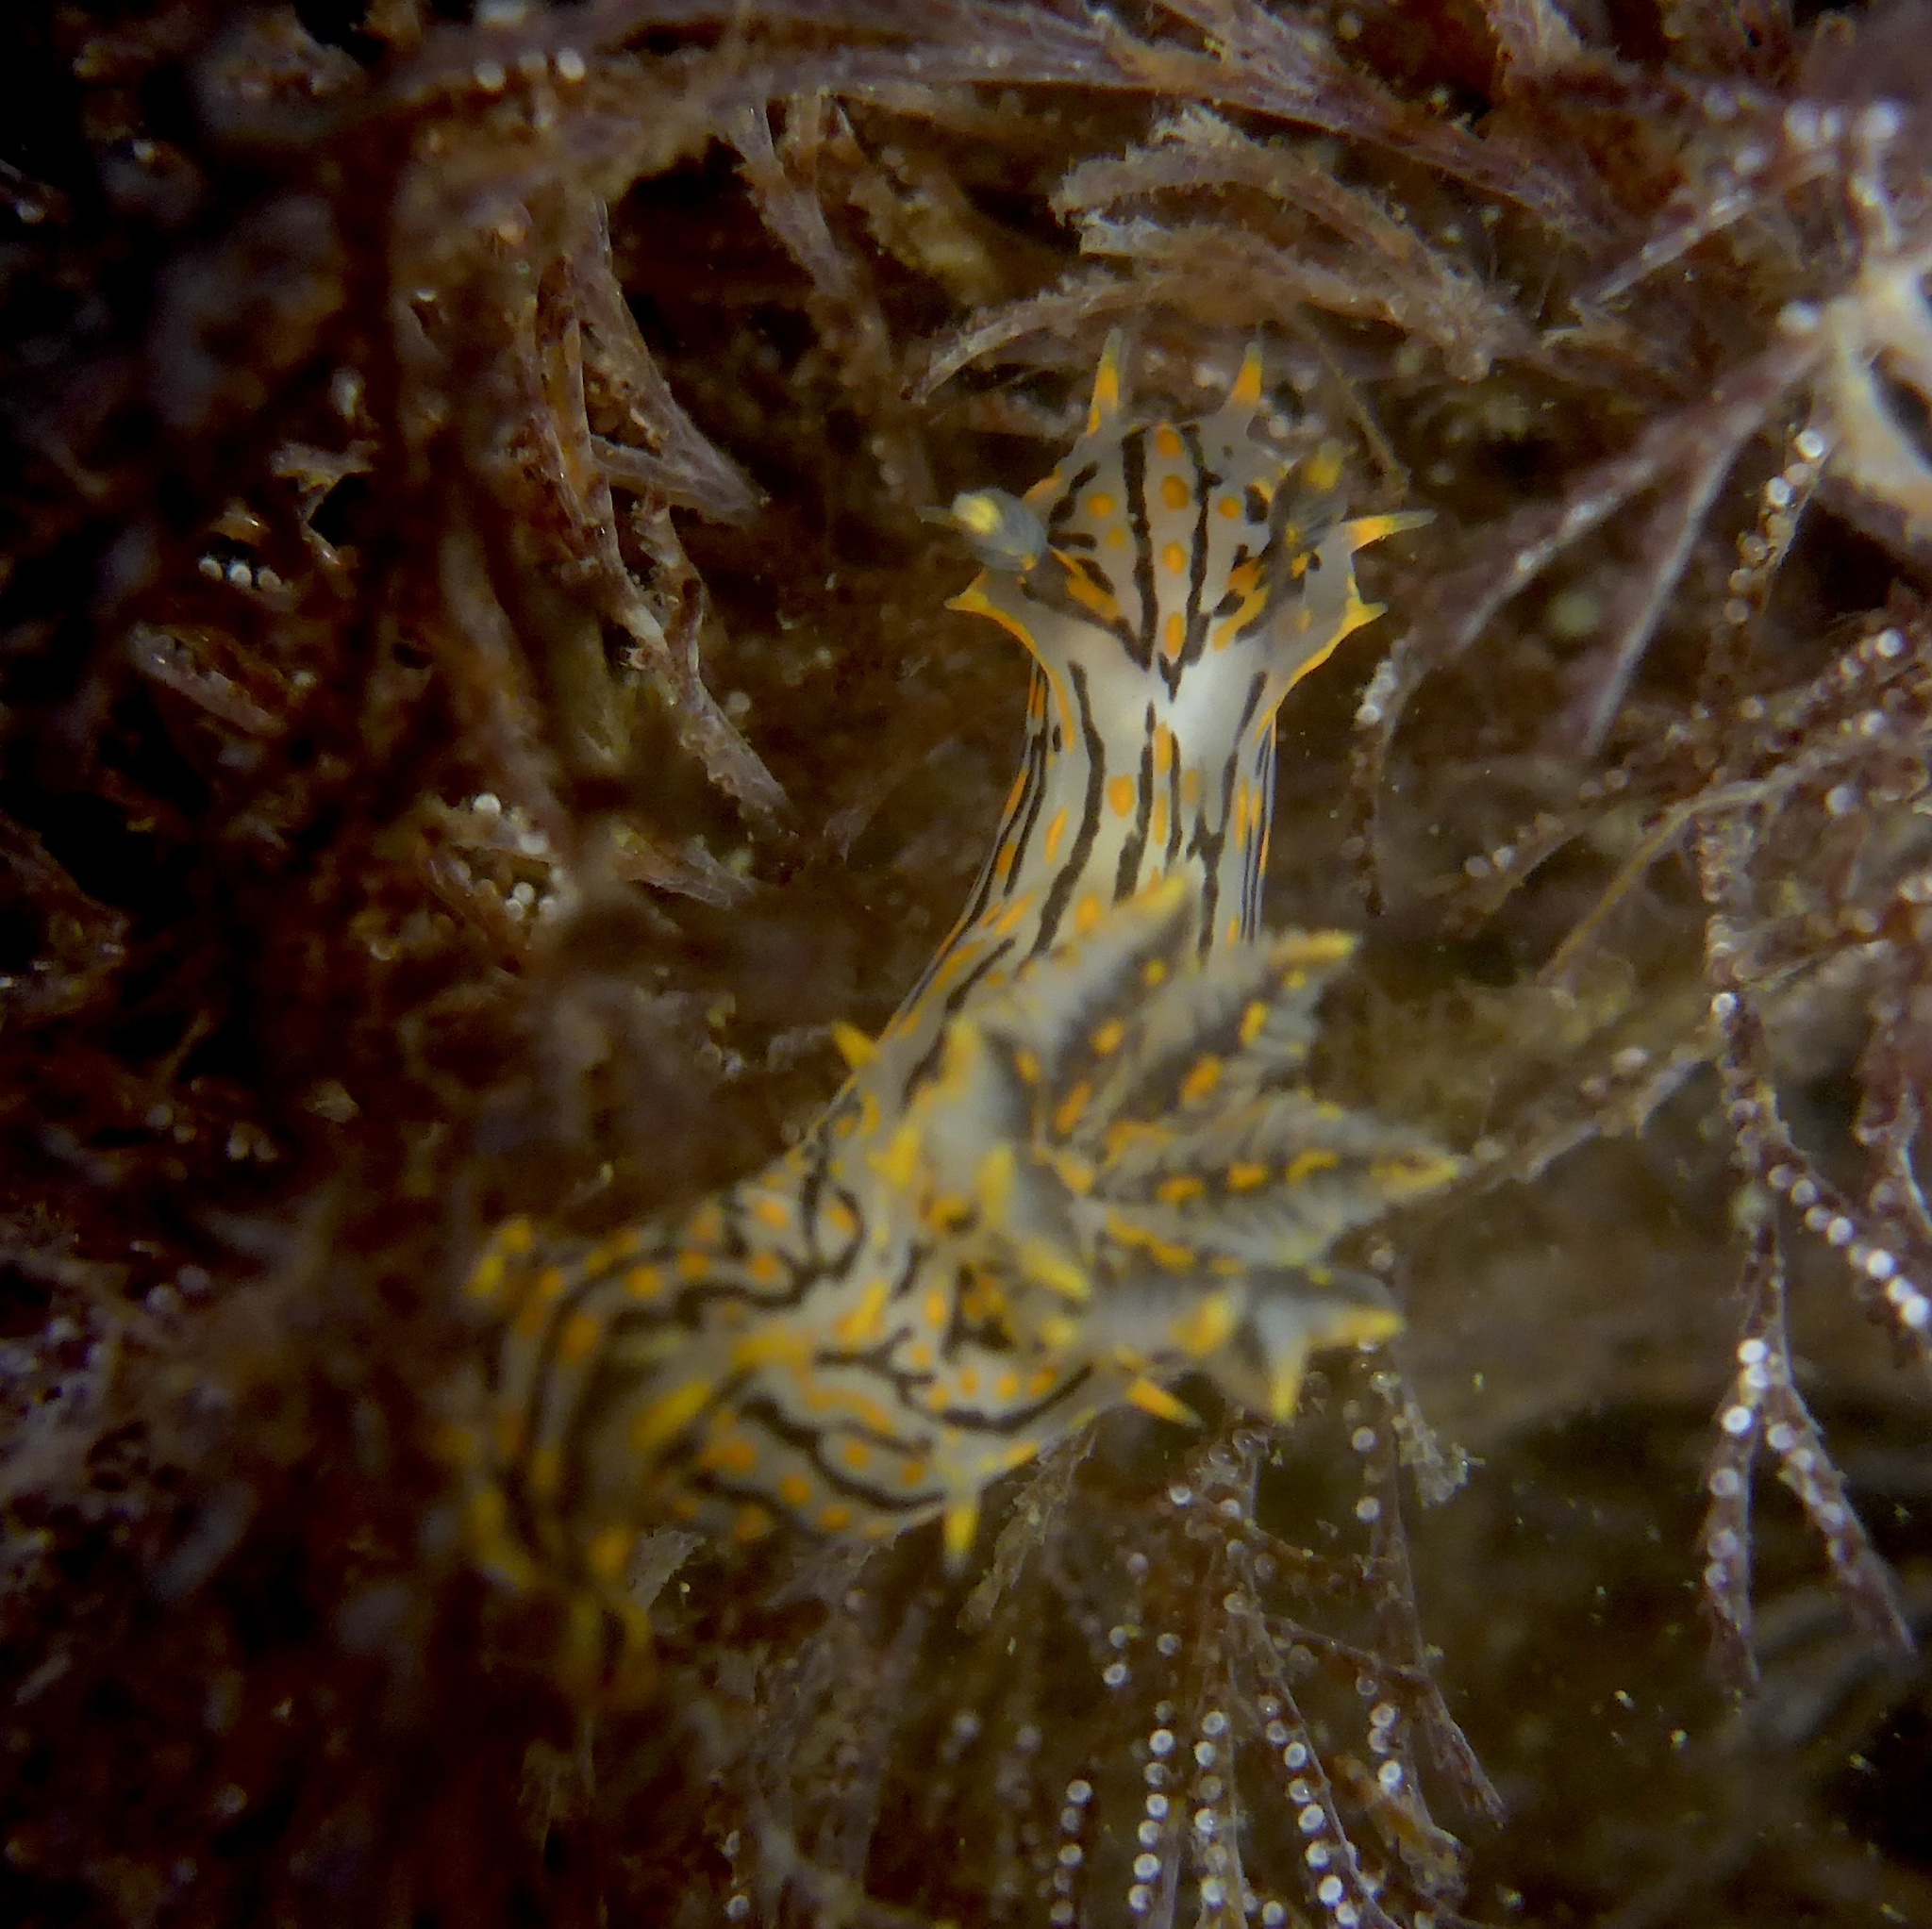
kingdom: Animalia
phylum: Mollusca
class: Gastropoda
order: Nudibranchia
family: Polyceridae
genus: Polycera
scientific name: Polycera atra
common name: Orange-spike polycera
